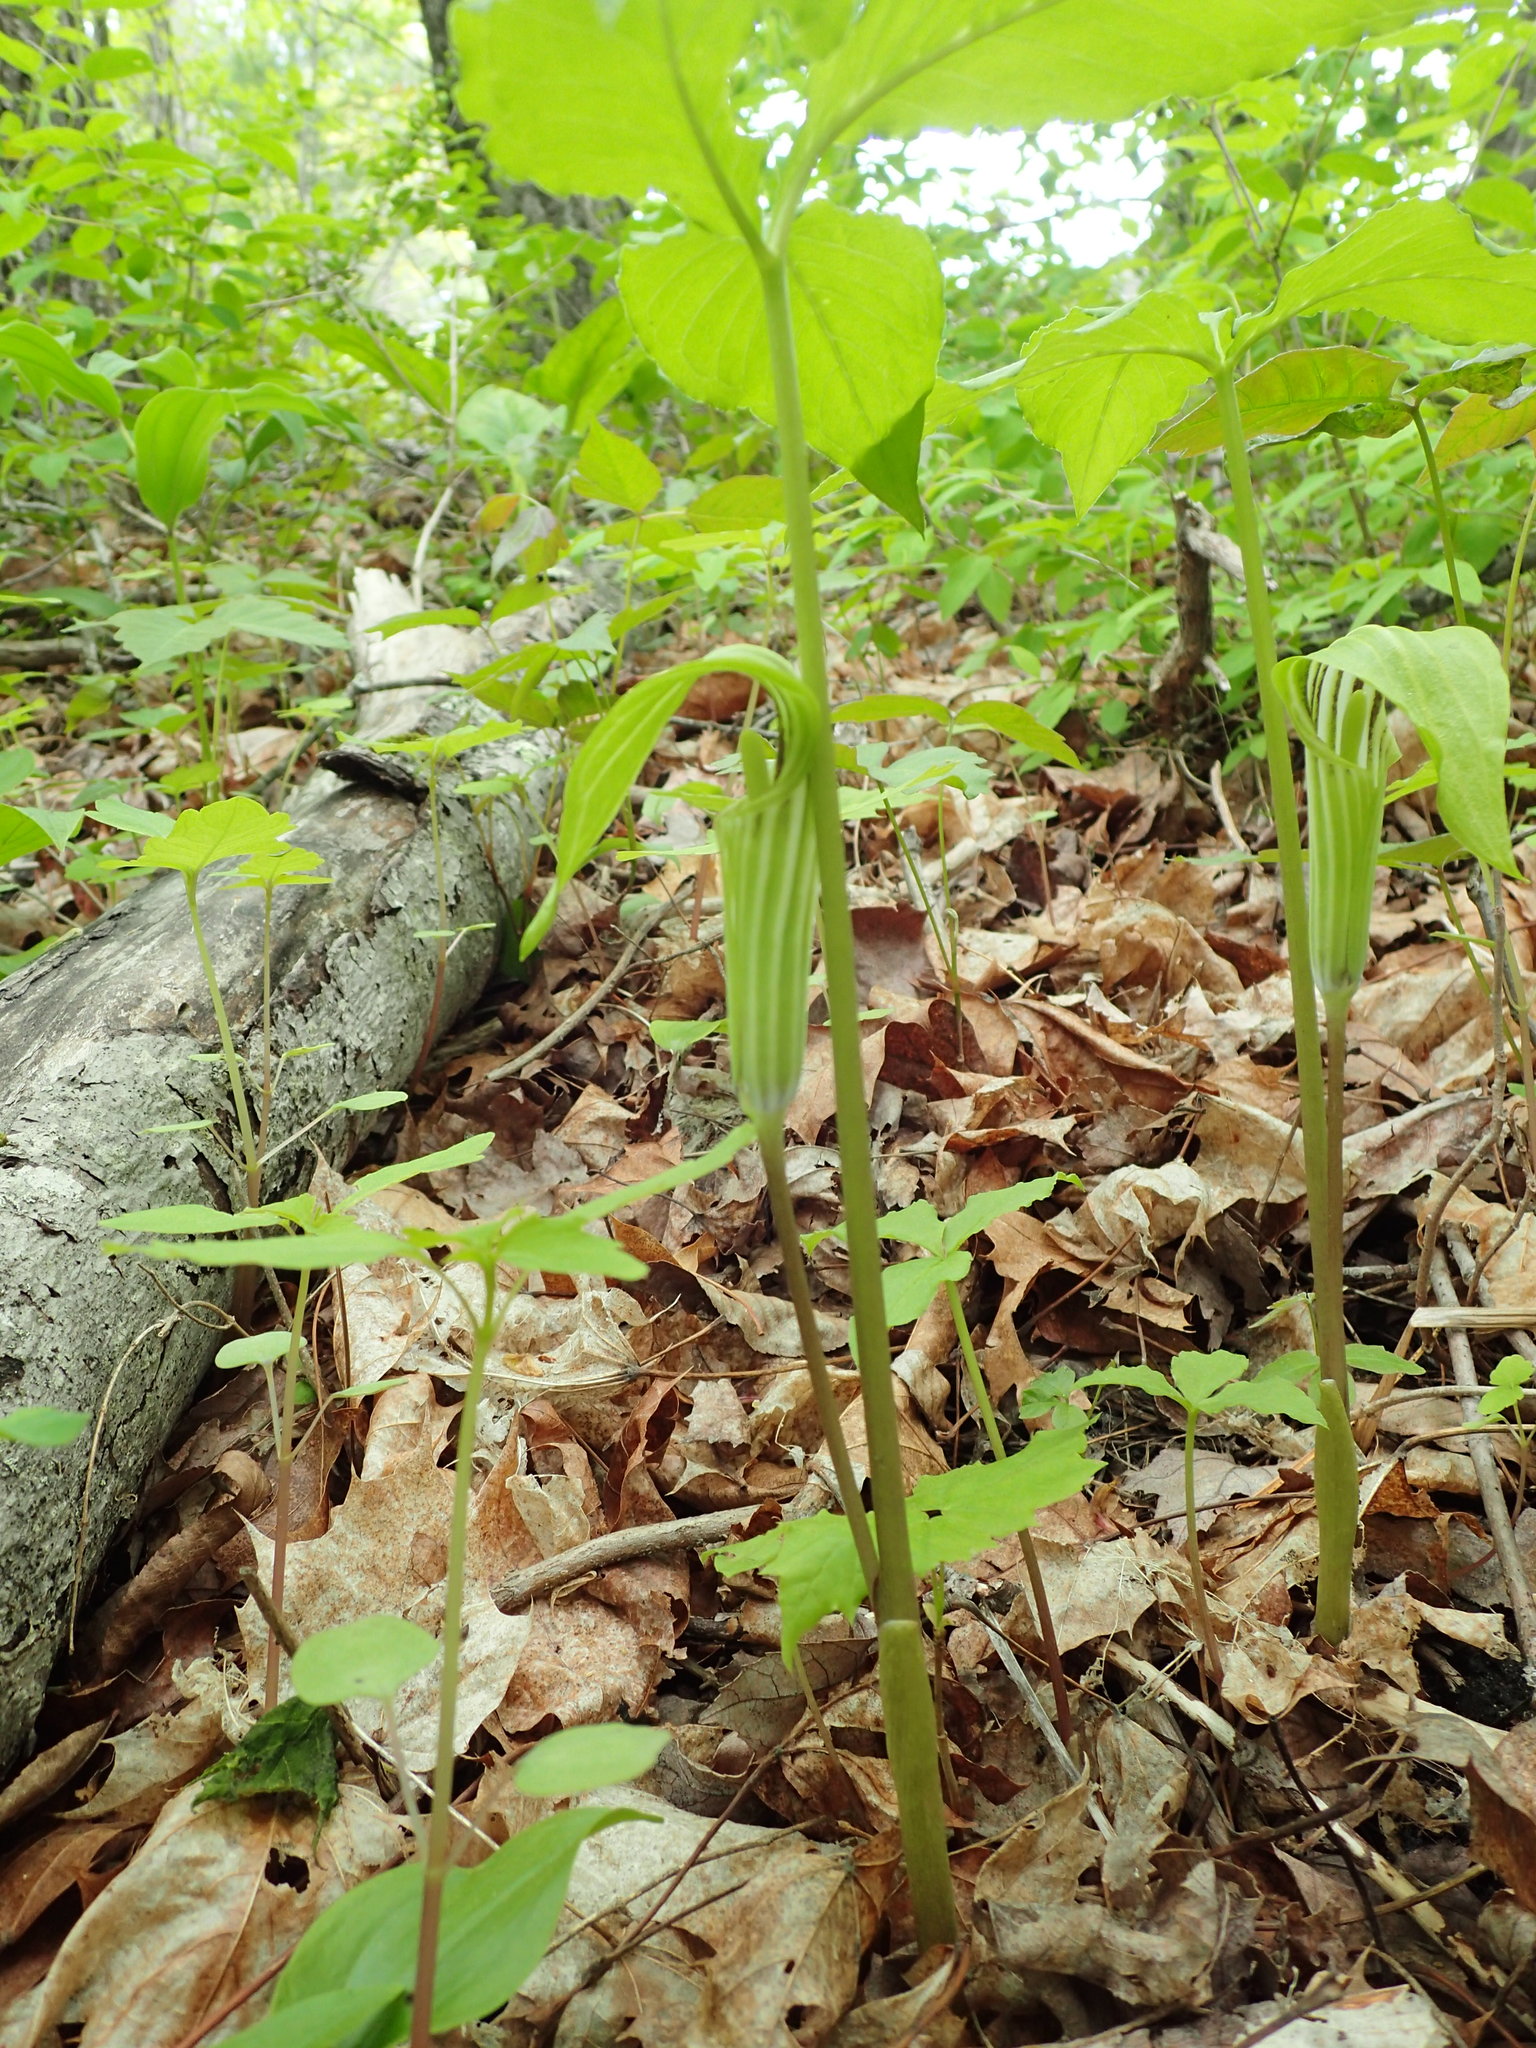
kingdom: Plantae
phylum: Tracheophyta
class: Liliopsida
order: Alismatales
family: Araceae
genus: Arisaema
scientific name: Arisaema triphyllum
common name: Jack-in-the-pulpit
